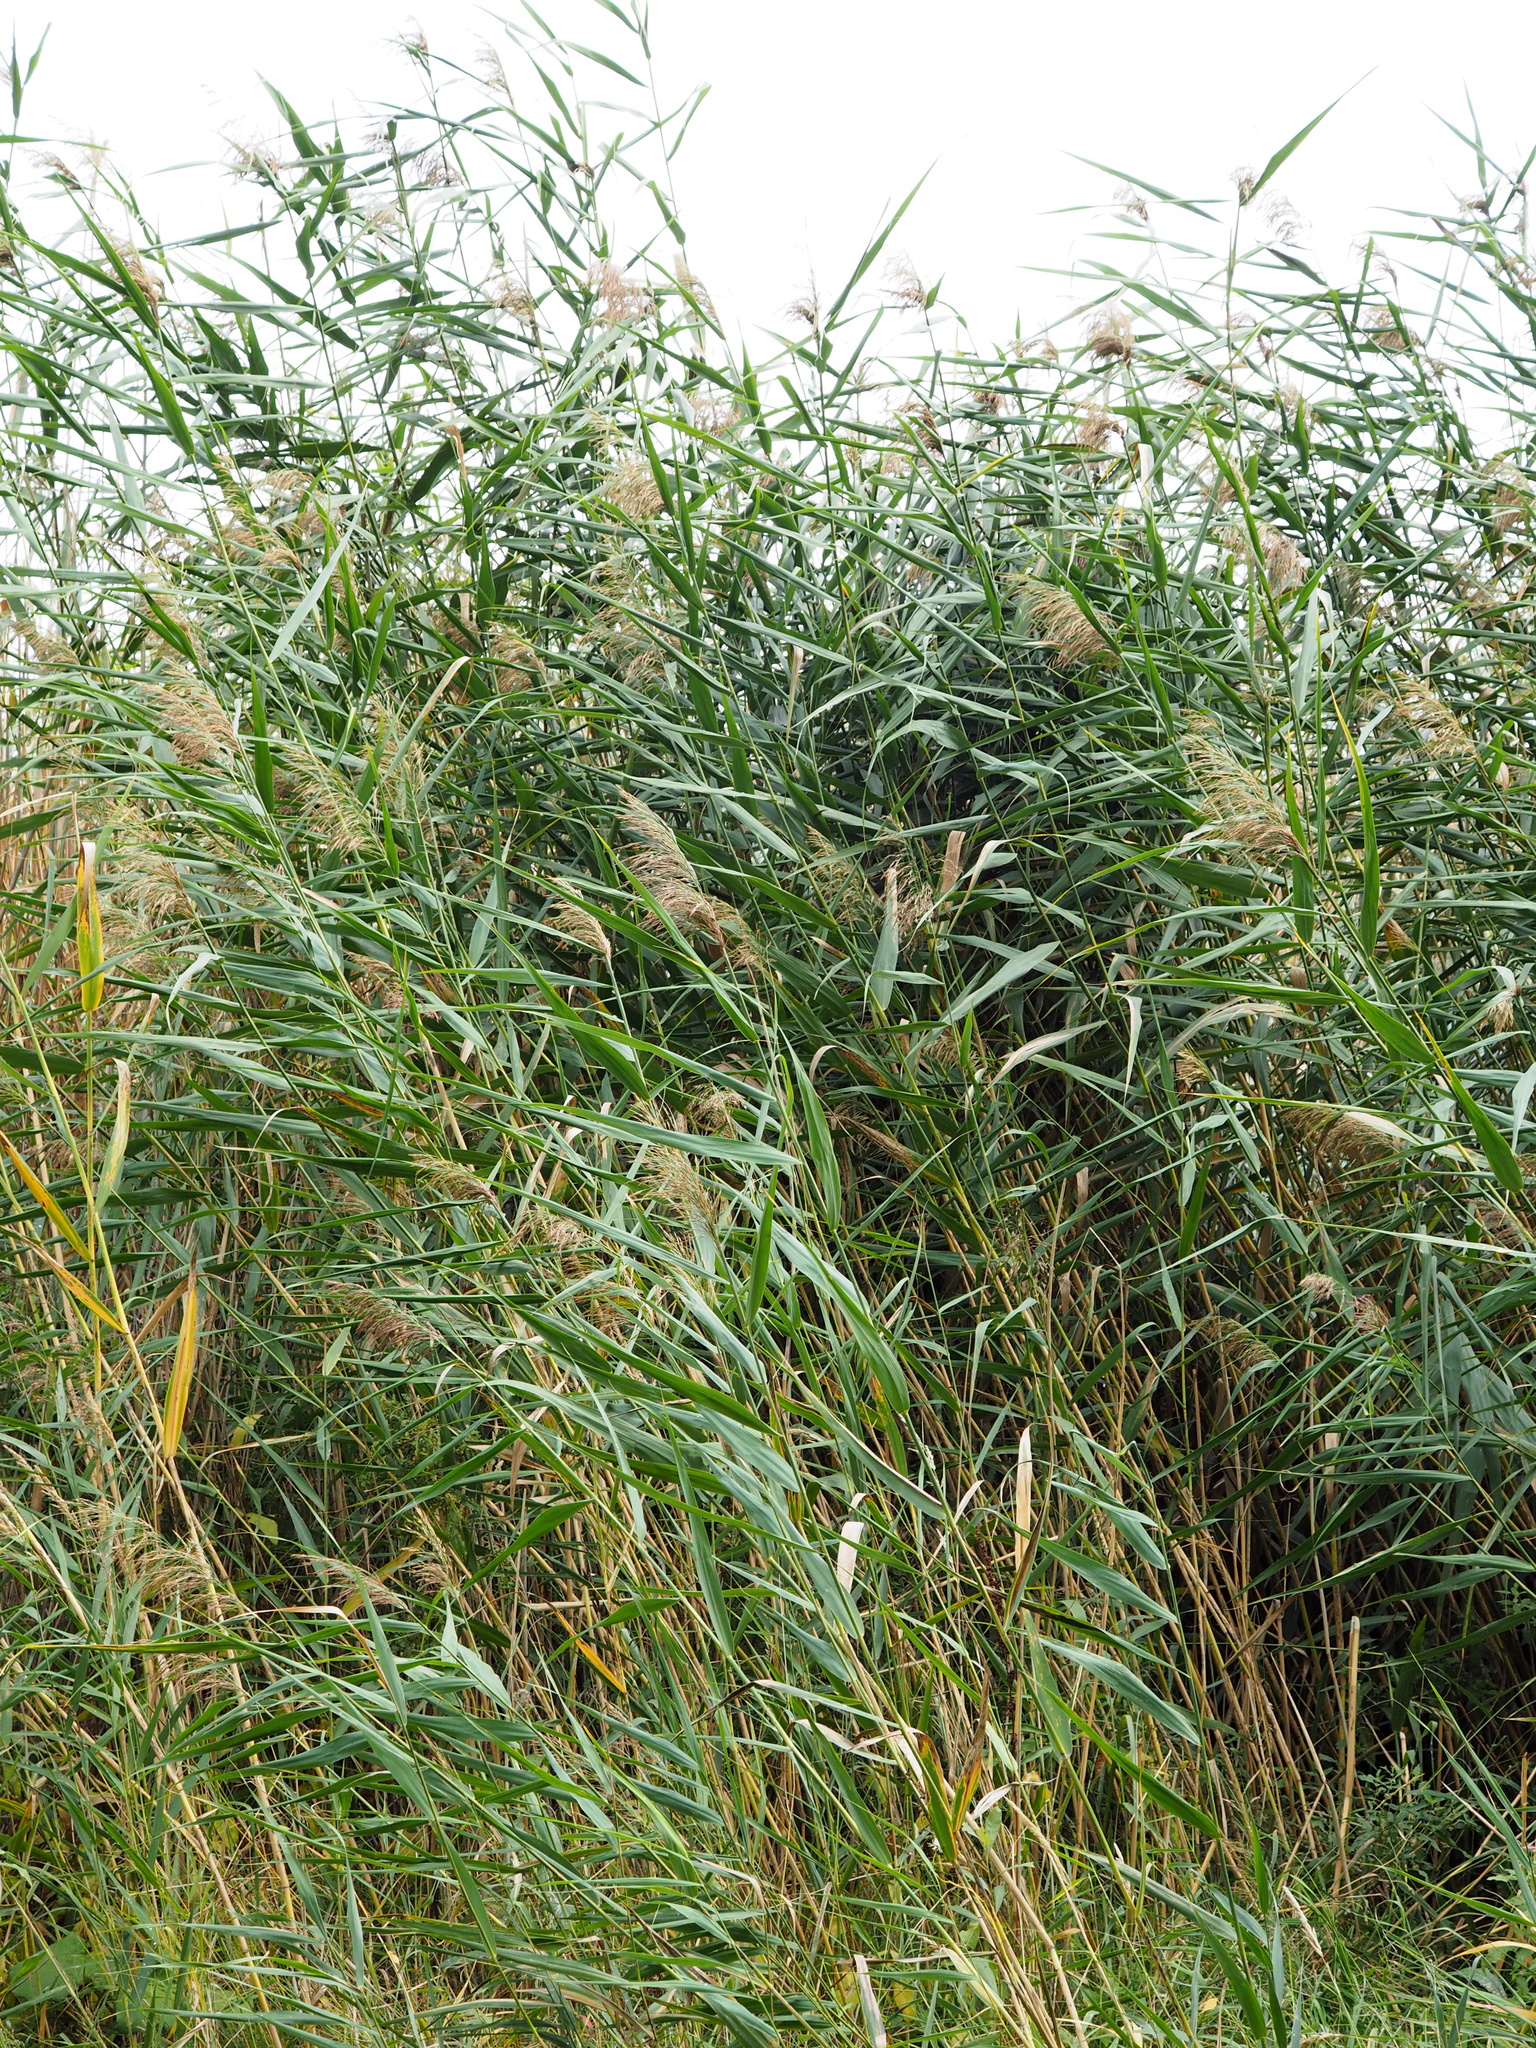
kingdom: Plantae
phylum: Tracheophyta
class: Liliopsida
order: Poales
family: Poaceae
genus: Phragmites
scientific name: Phragmites australis
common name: Common reed
